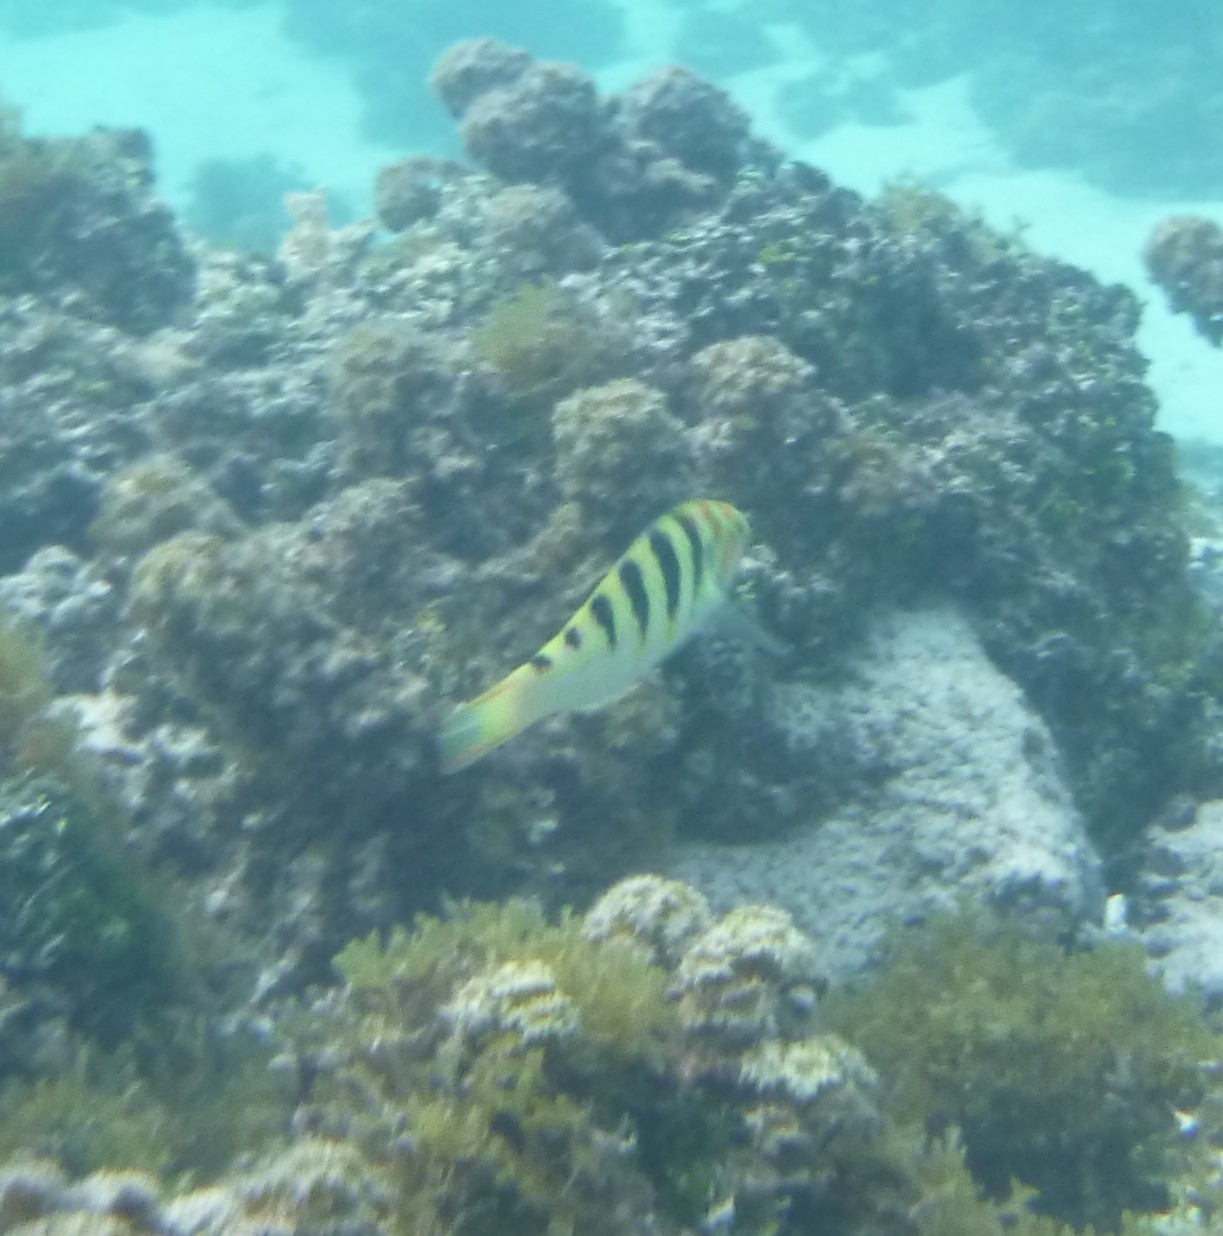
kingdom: Animalia
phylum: Chordata
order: Perciformes
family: Labridae
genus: Thalassoma
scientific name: Thalassoma hardwicke
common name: Sixbar wrasse
